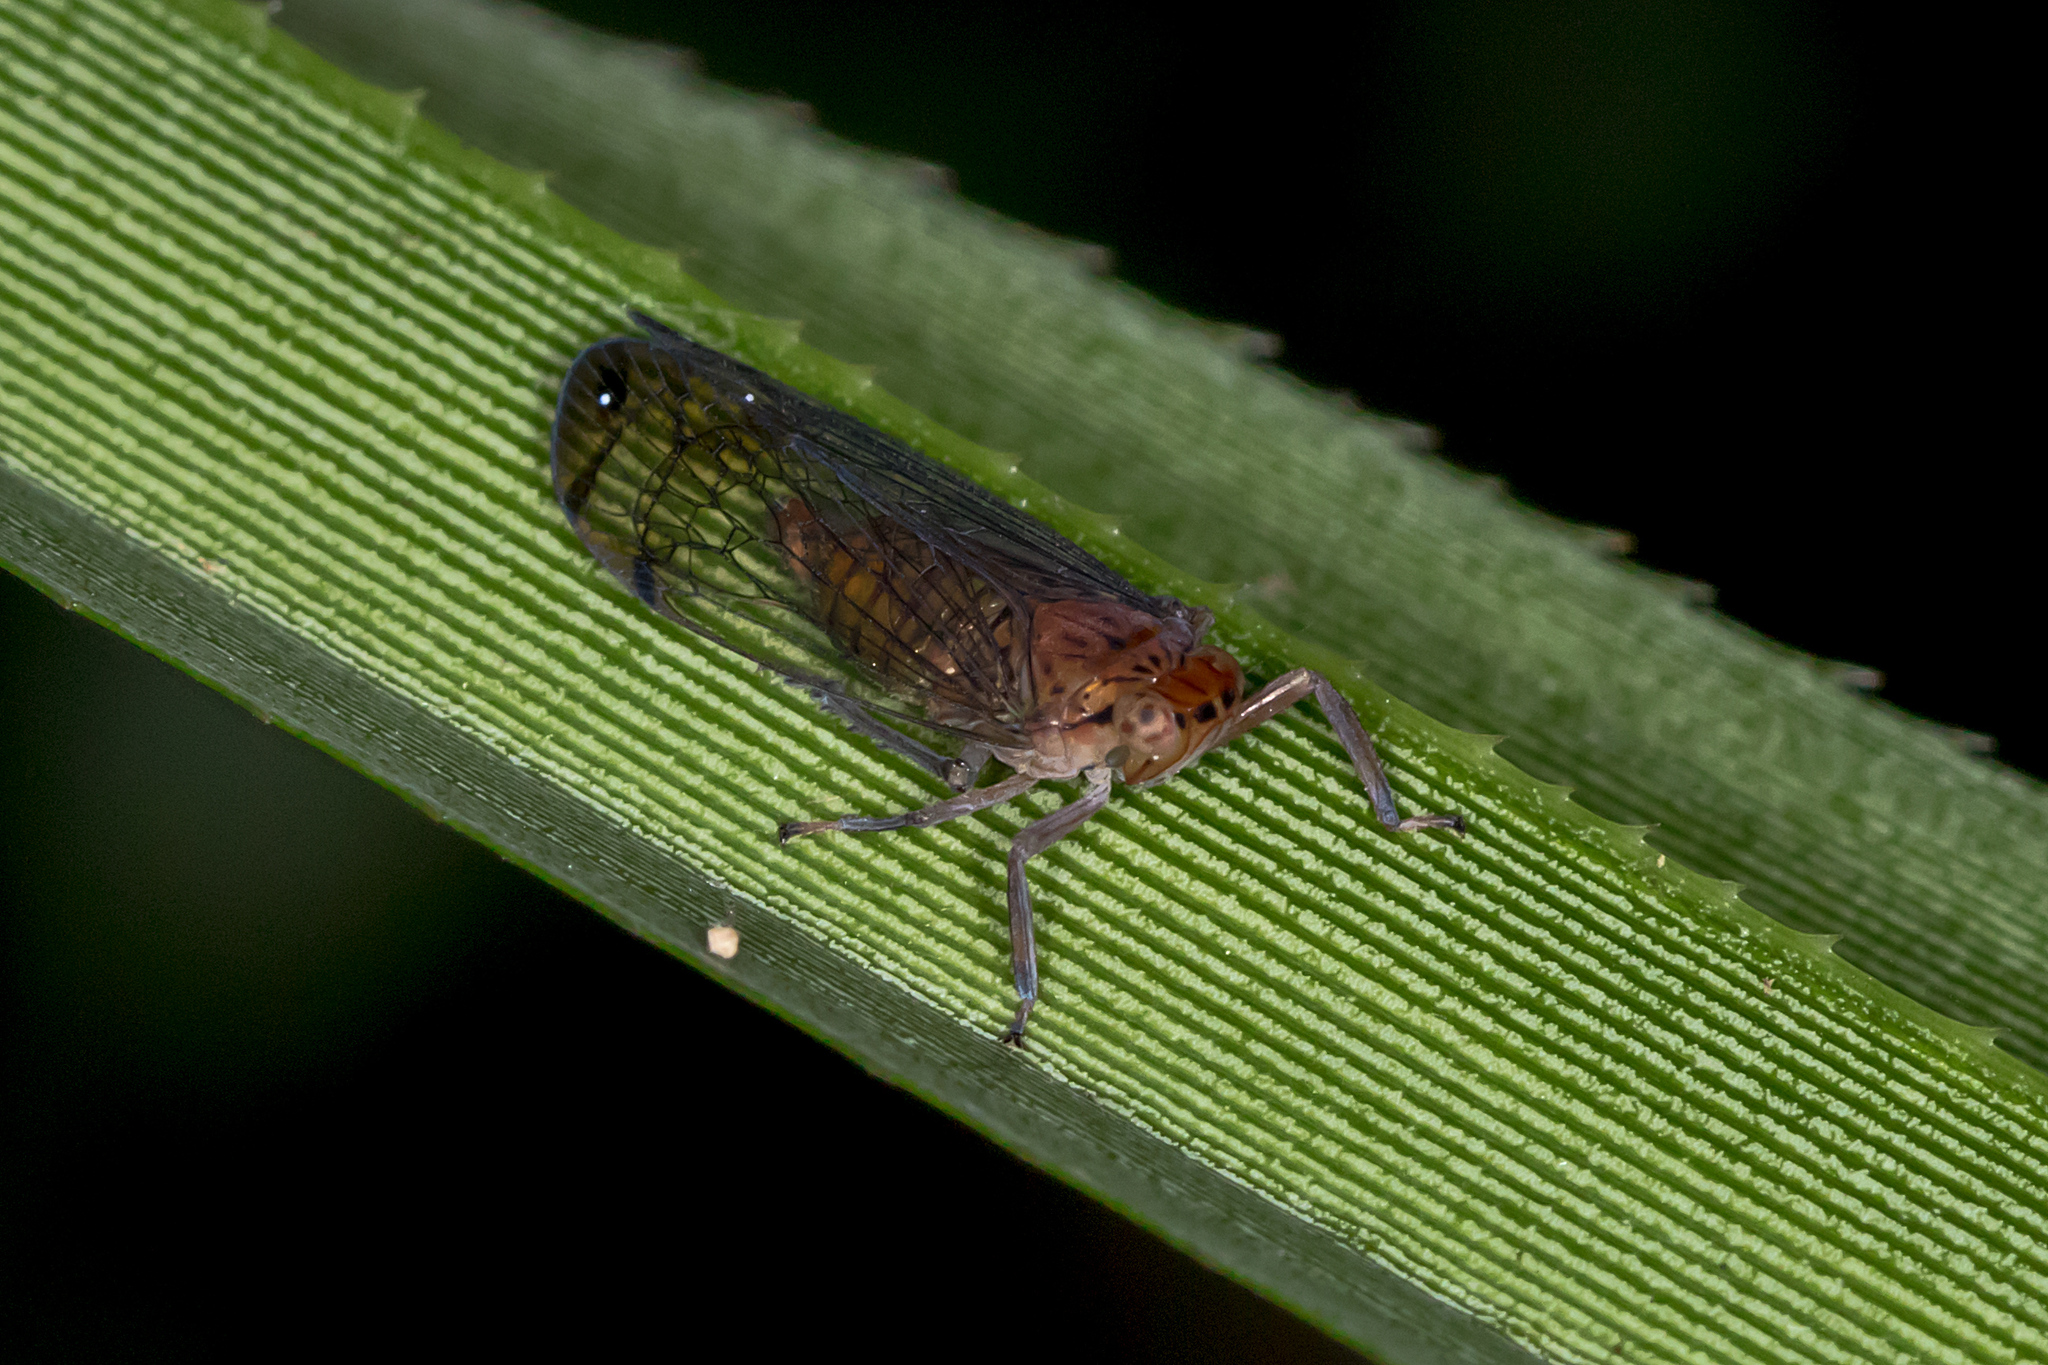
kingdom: Animalia
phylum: Arthropoda
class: Insecta
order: Hemiptera
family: Lophopidae
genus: Magia
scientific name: Magia subocellata
